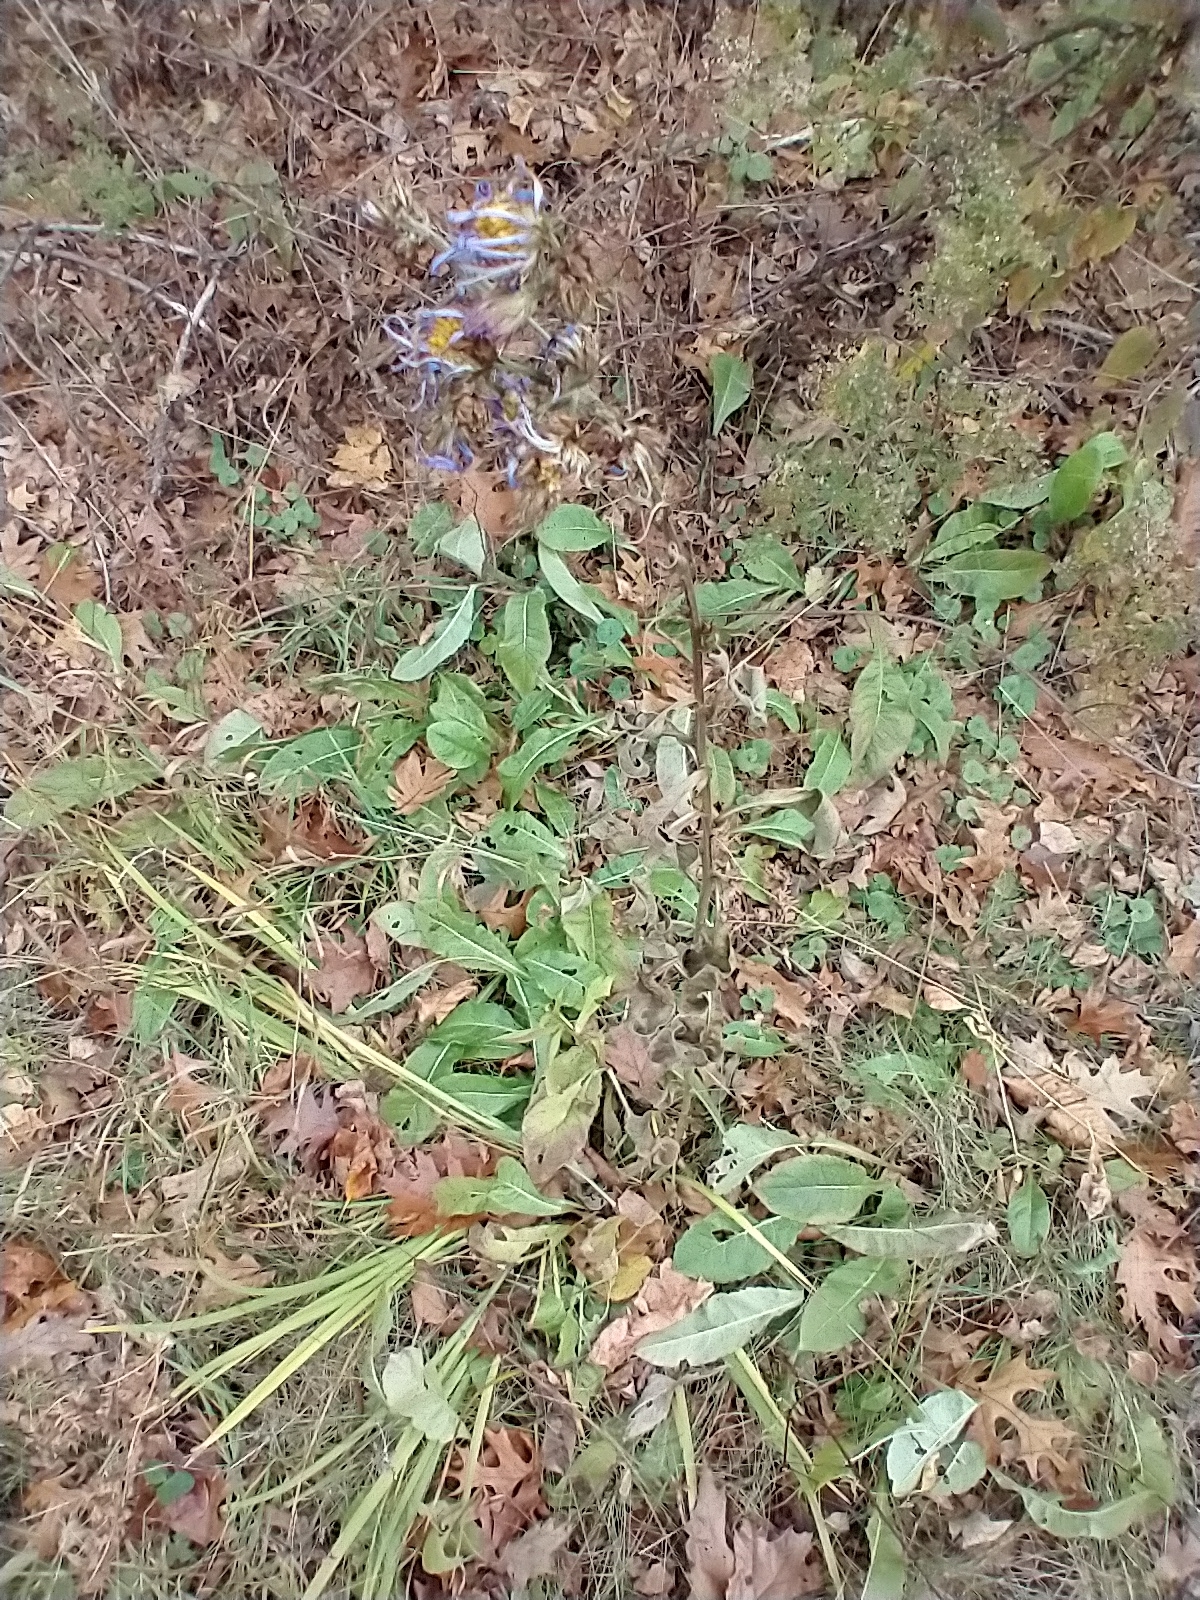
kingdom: Plantae
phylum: Tracheophyta
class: Magnoliopsida
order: Asterales
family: Asteraceae
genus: Aster
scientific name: Aster tataricus
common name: Tatarian aster
